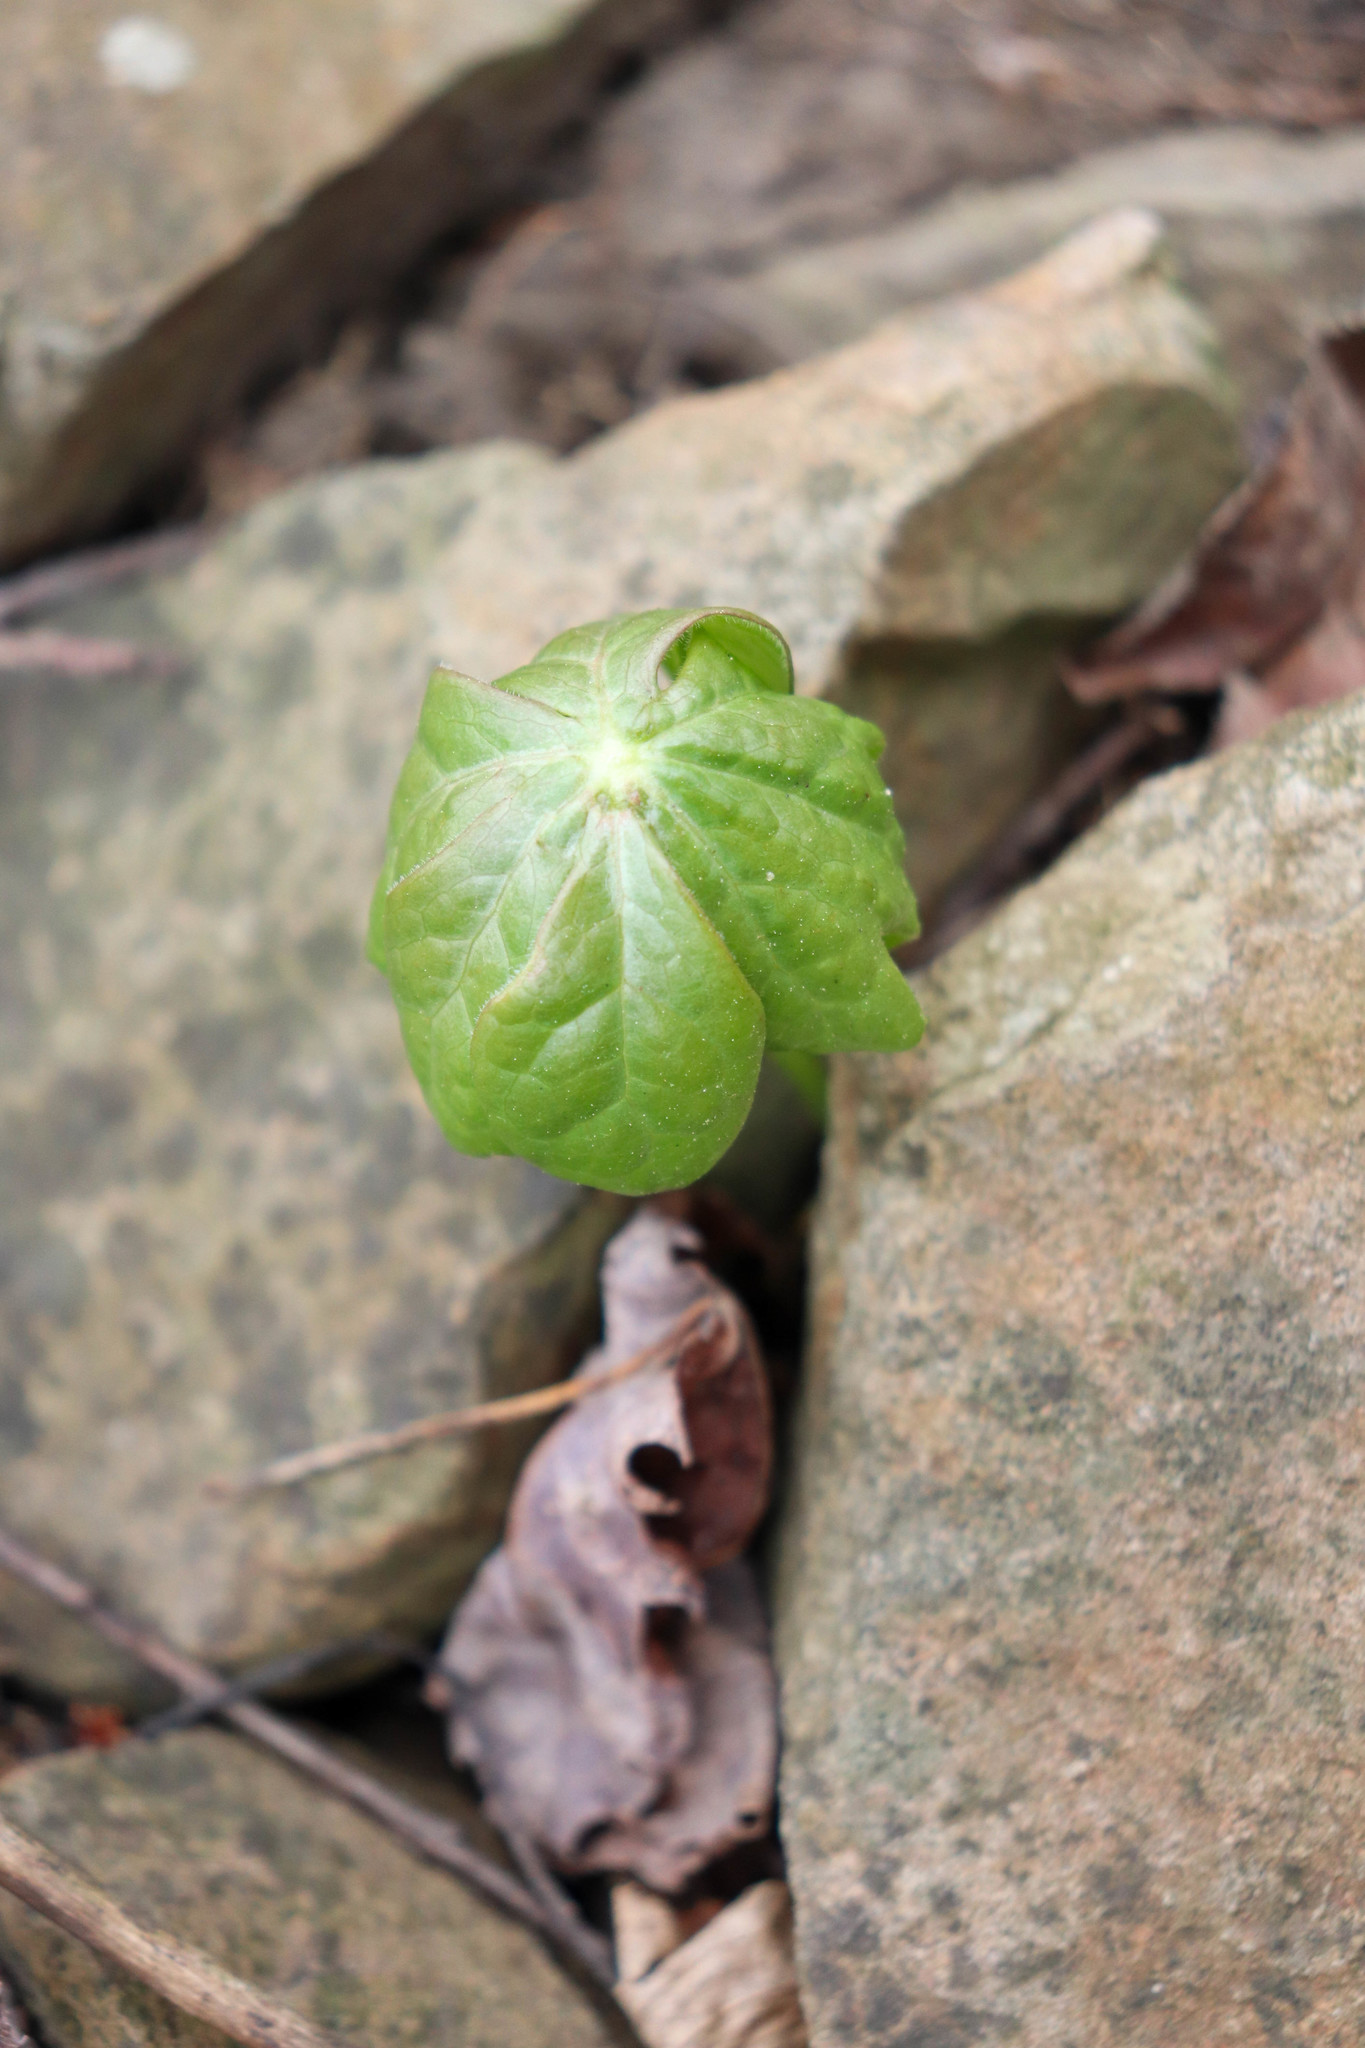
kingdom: Plantae
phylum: Tracheophyta
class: Magnoliopsida
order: Ranunculales
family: Berberidaceae
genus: Podophyllum
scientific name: Podophyllum peltatum
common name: Wild mandrake
